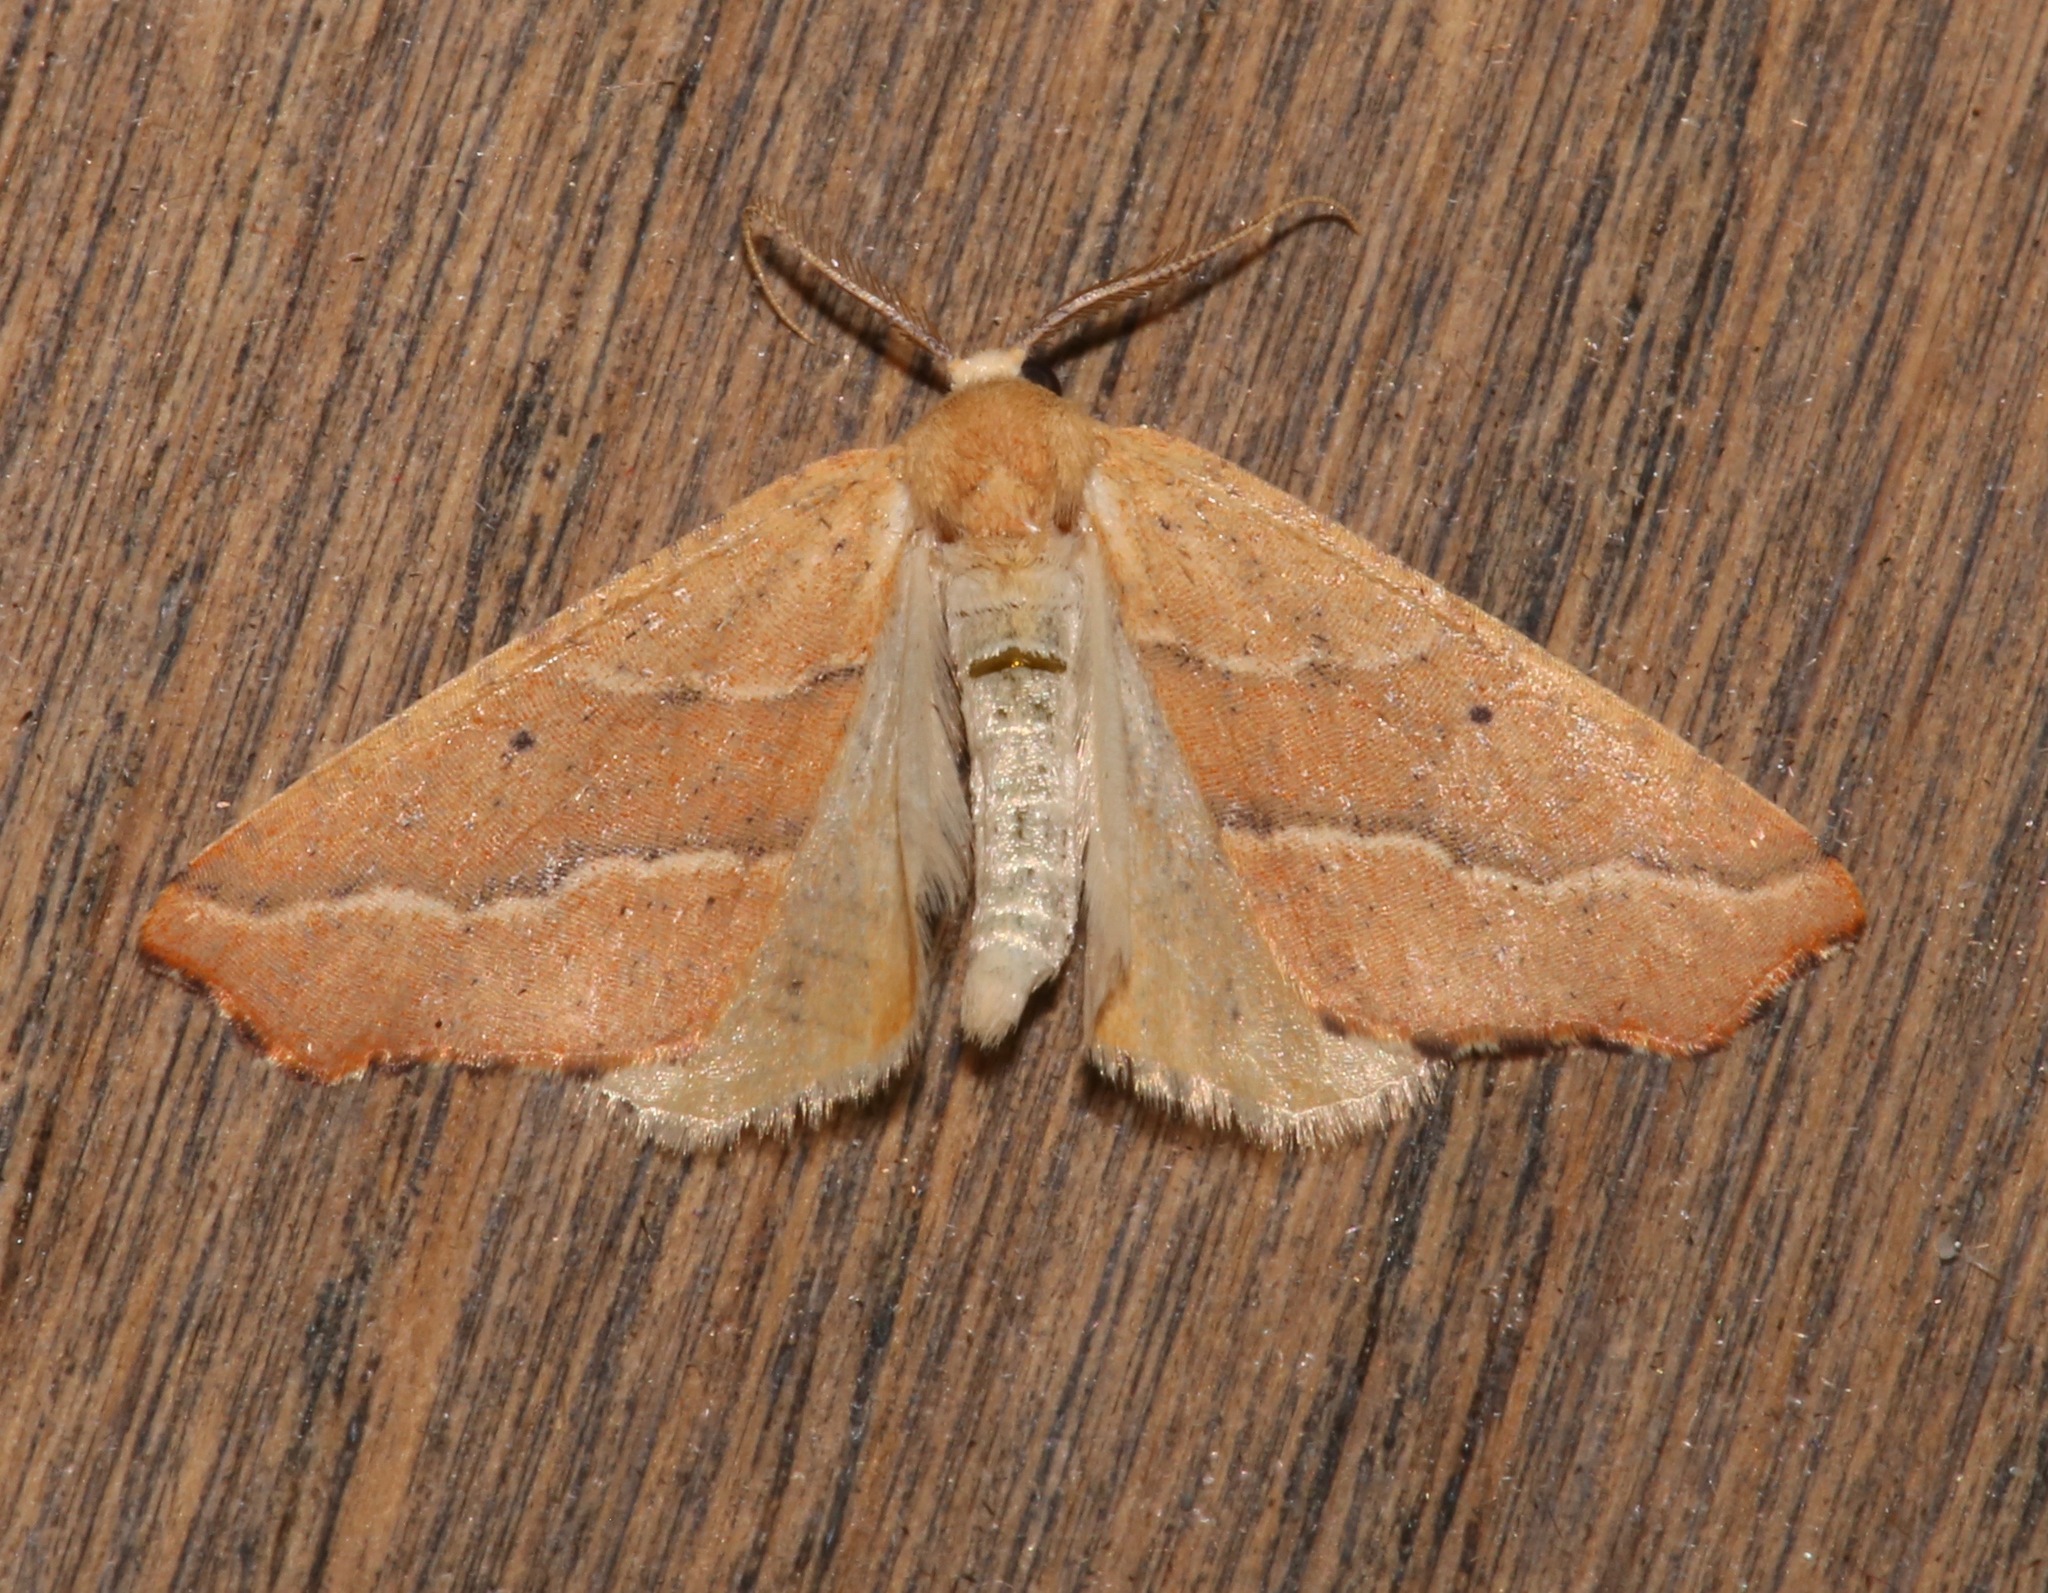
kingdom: Animalia
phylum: Arthropoda
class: Insecta
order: Lepidoptera
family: Geometridae
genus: Sicya
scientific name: Sicya morsicaria
